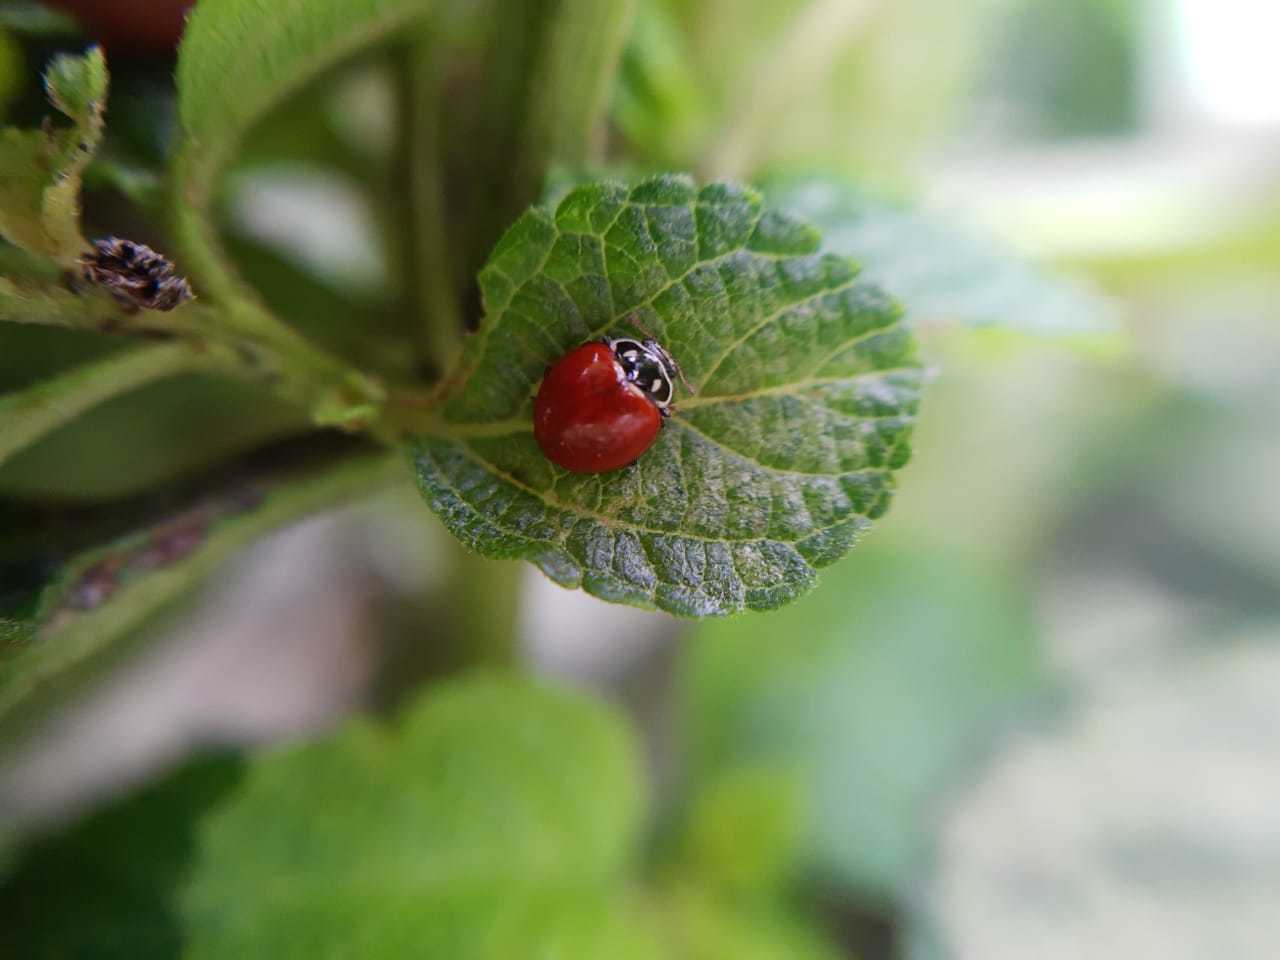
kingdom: Animalia
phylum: Arthropoda
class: Insecta
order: Coleoptera
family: Coccinellidae
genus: Cycloneda
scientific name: Cycloneda sanguinea
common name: Ladybird beetle
